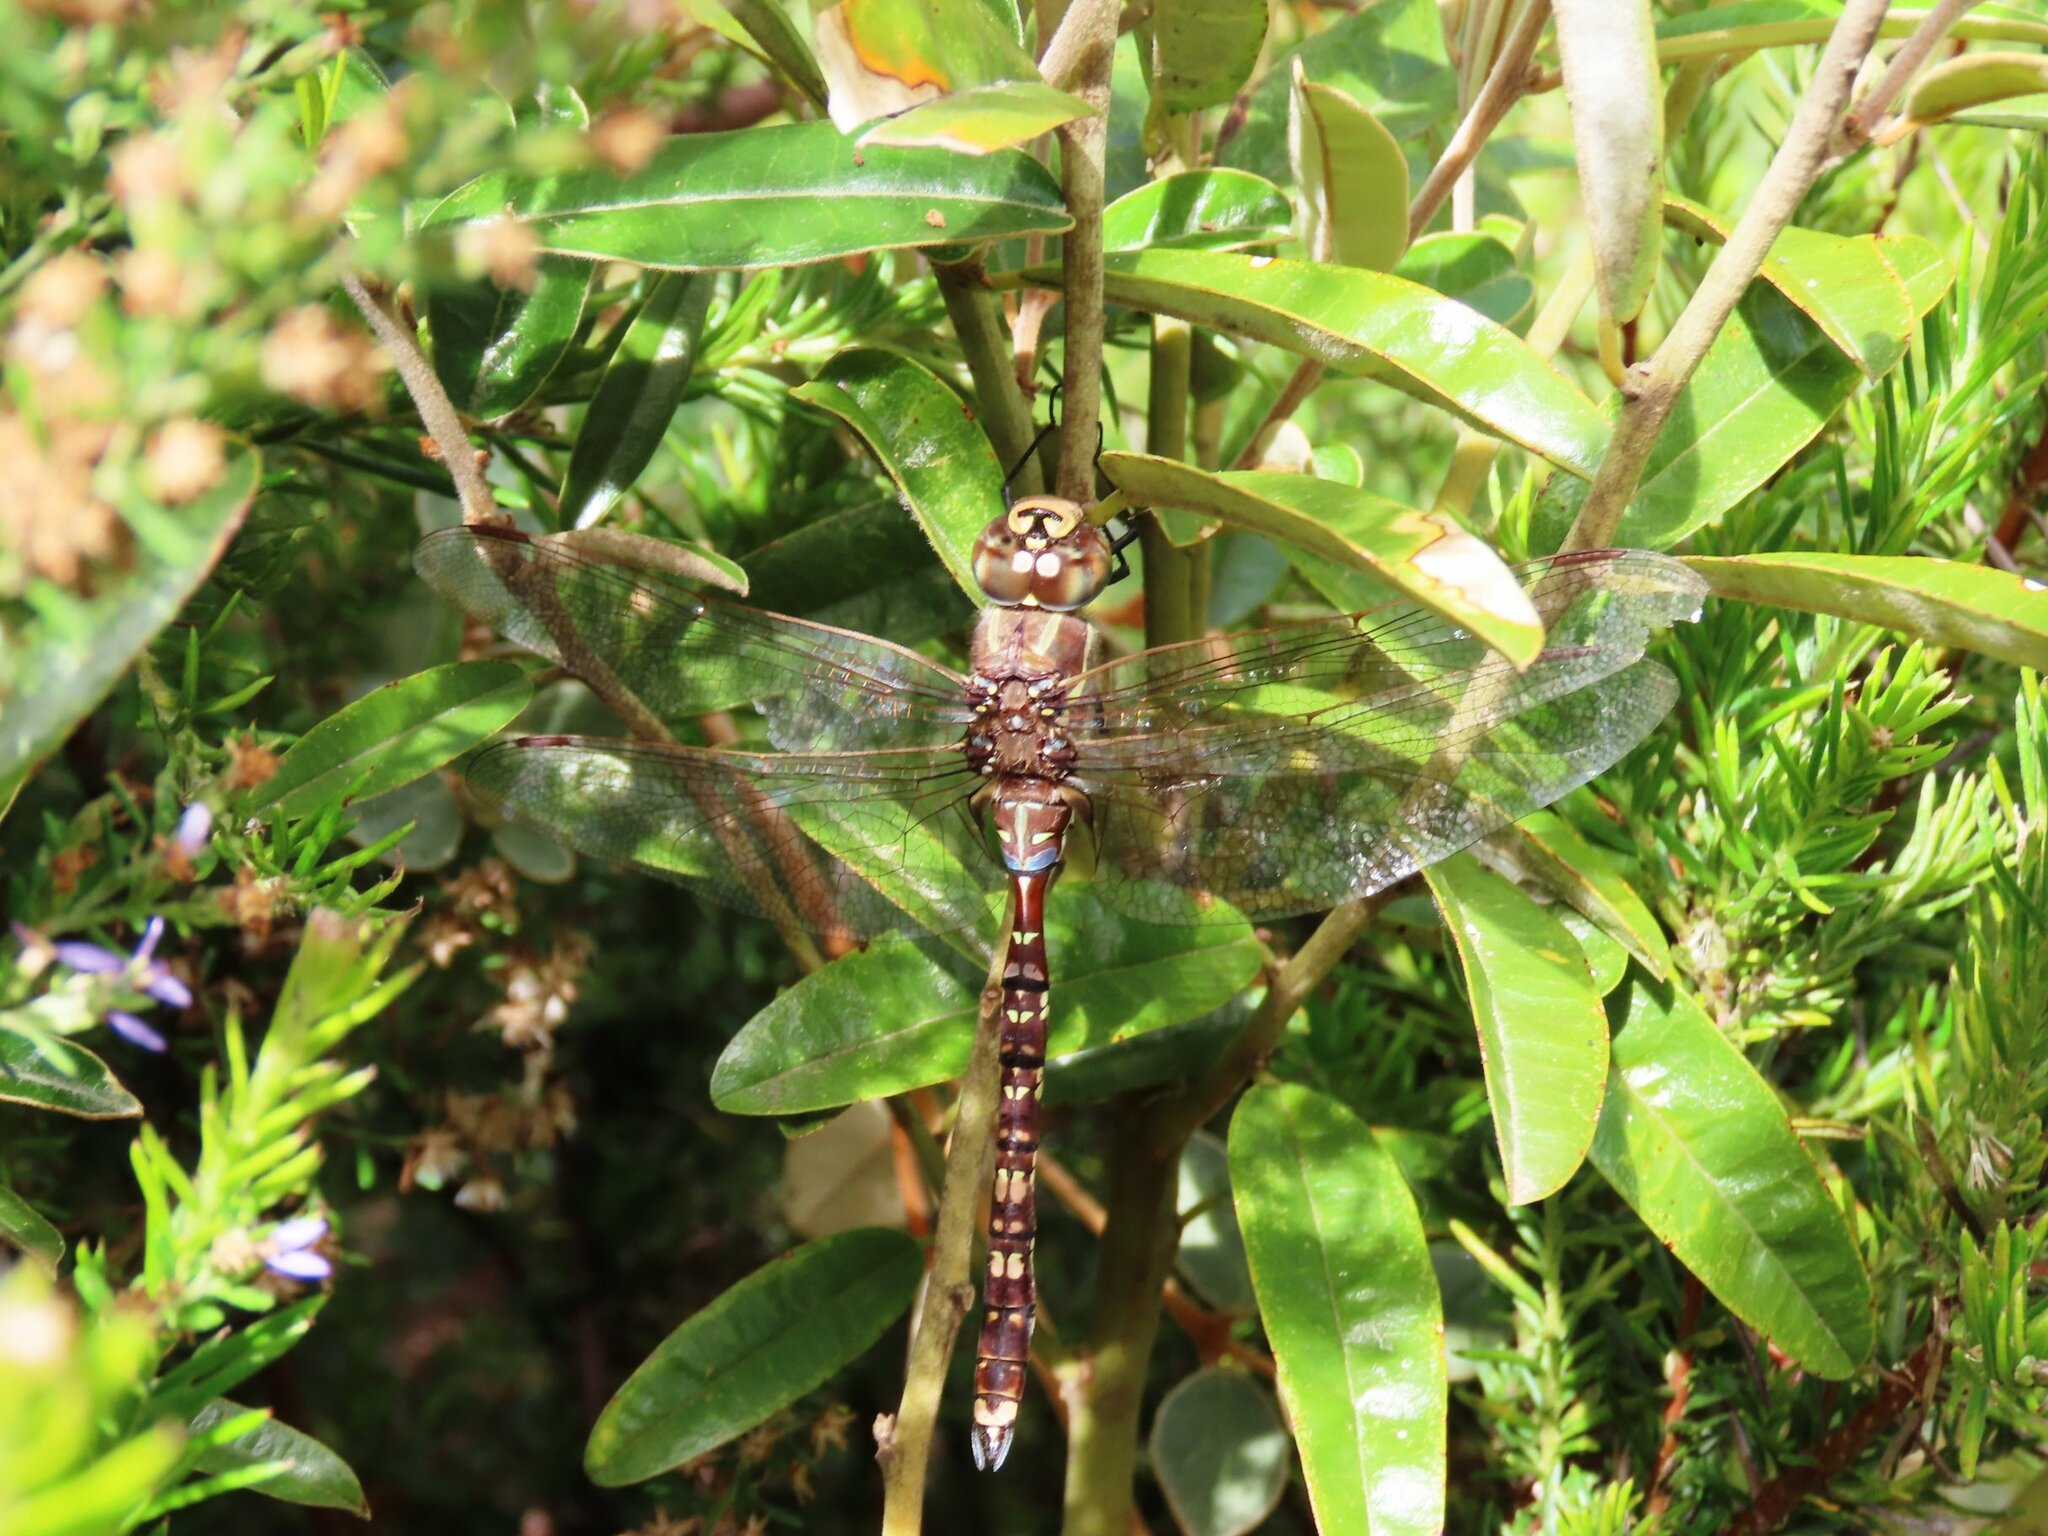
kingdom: Animalia
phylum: Arthropoda
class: Insecta
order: Odonata
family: Aeshnidae
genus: Aeshna
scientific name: Aeshna brevistyla
